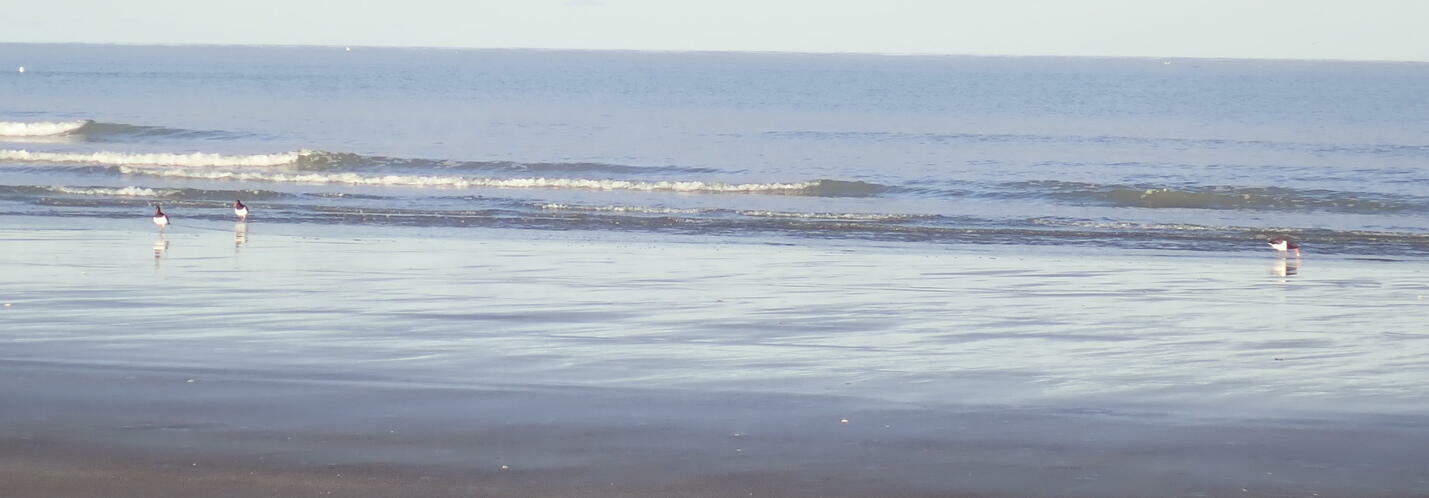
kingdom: Animalia
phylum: Chordata
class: Aves
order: Charadriiformes
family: Haematopodidae
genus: Haematopus
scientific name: Haematopus finschi
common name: South island oystercatcher
